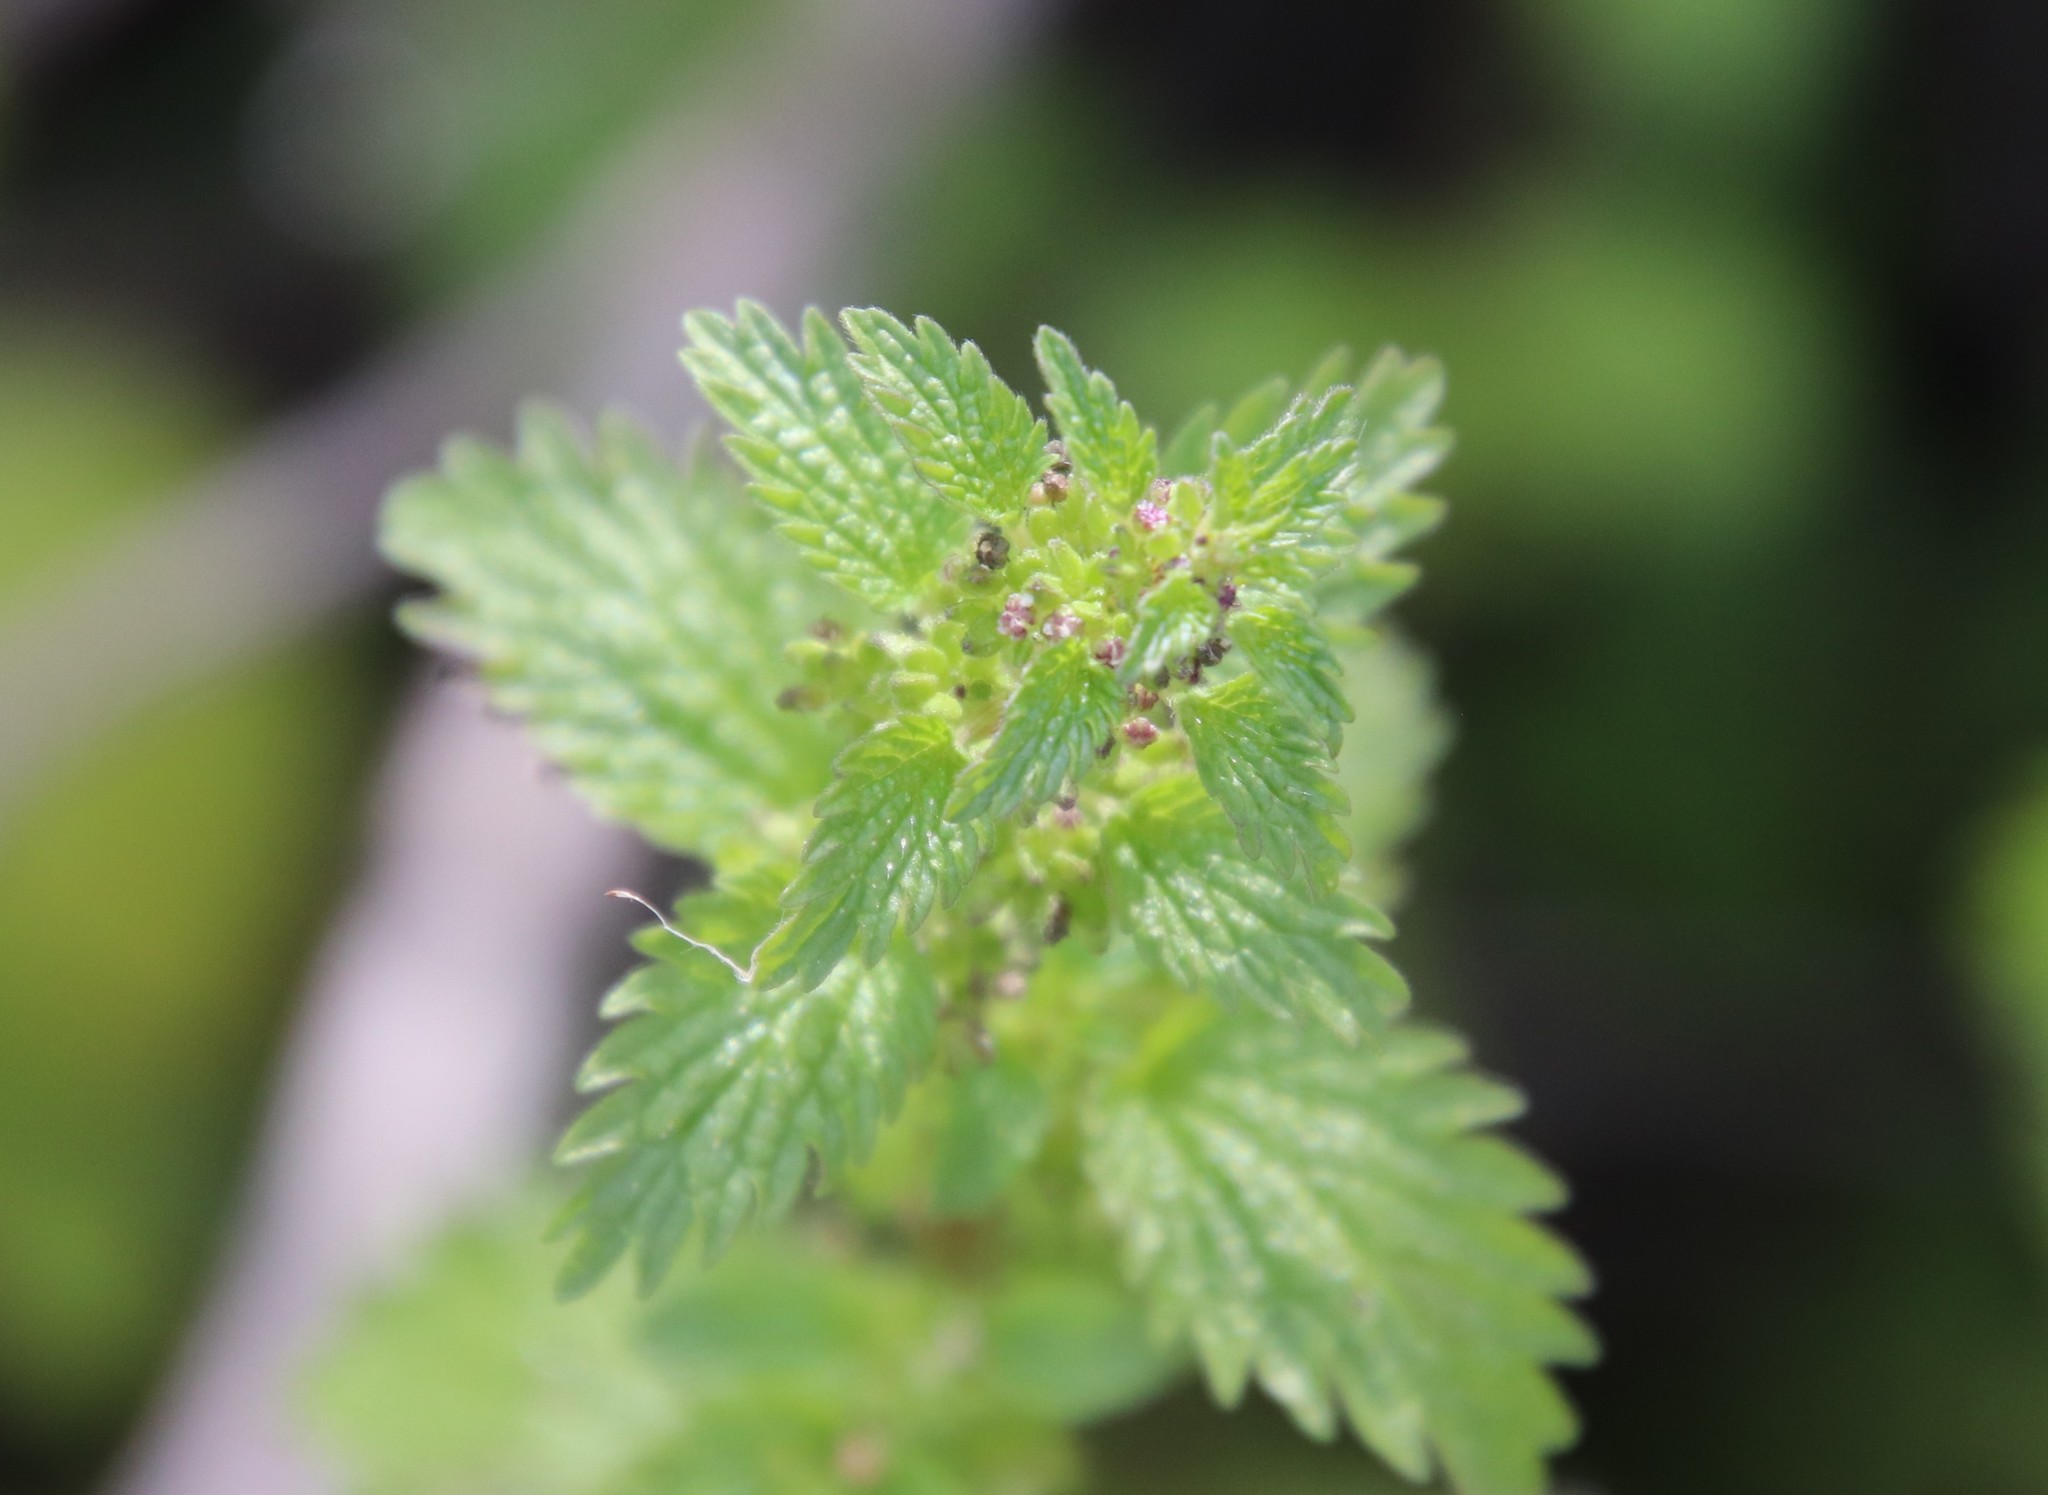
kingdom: Plantae
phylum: Tracheophyta
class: Magnoliopsida
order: Rosales
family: Urticaceae
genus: Urtica
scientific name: Urtica urens
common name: Dwarf nettle
